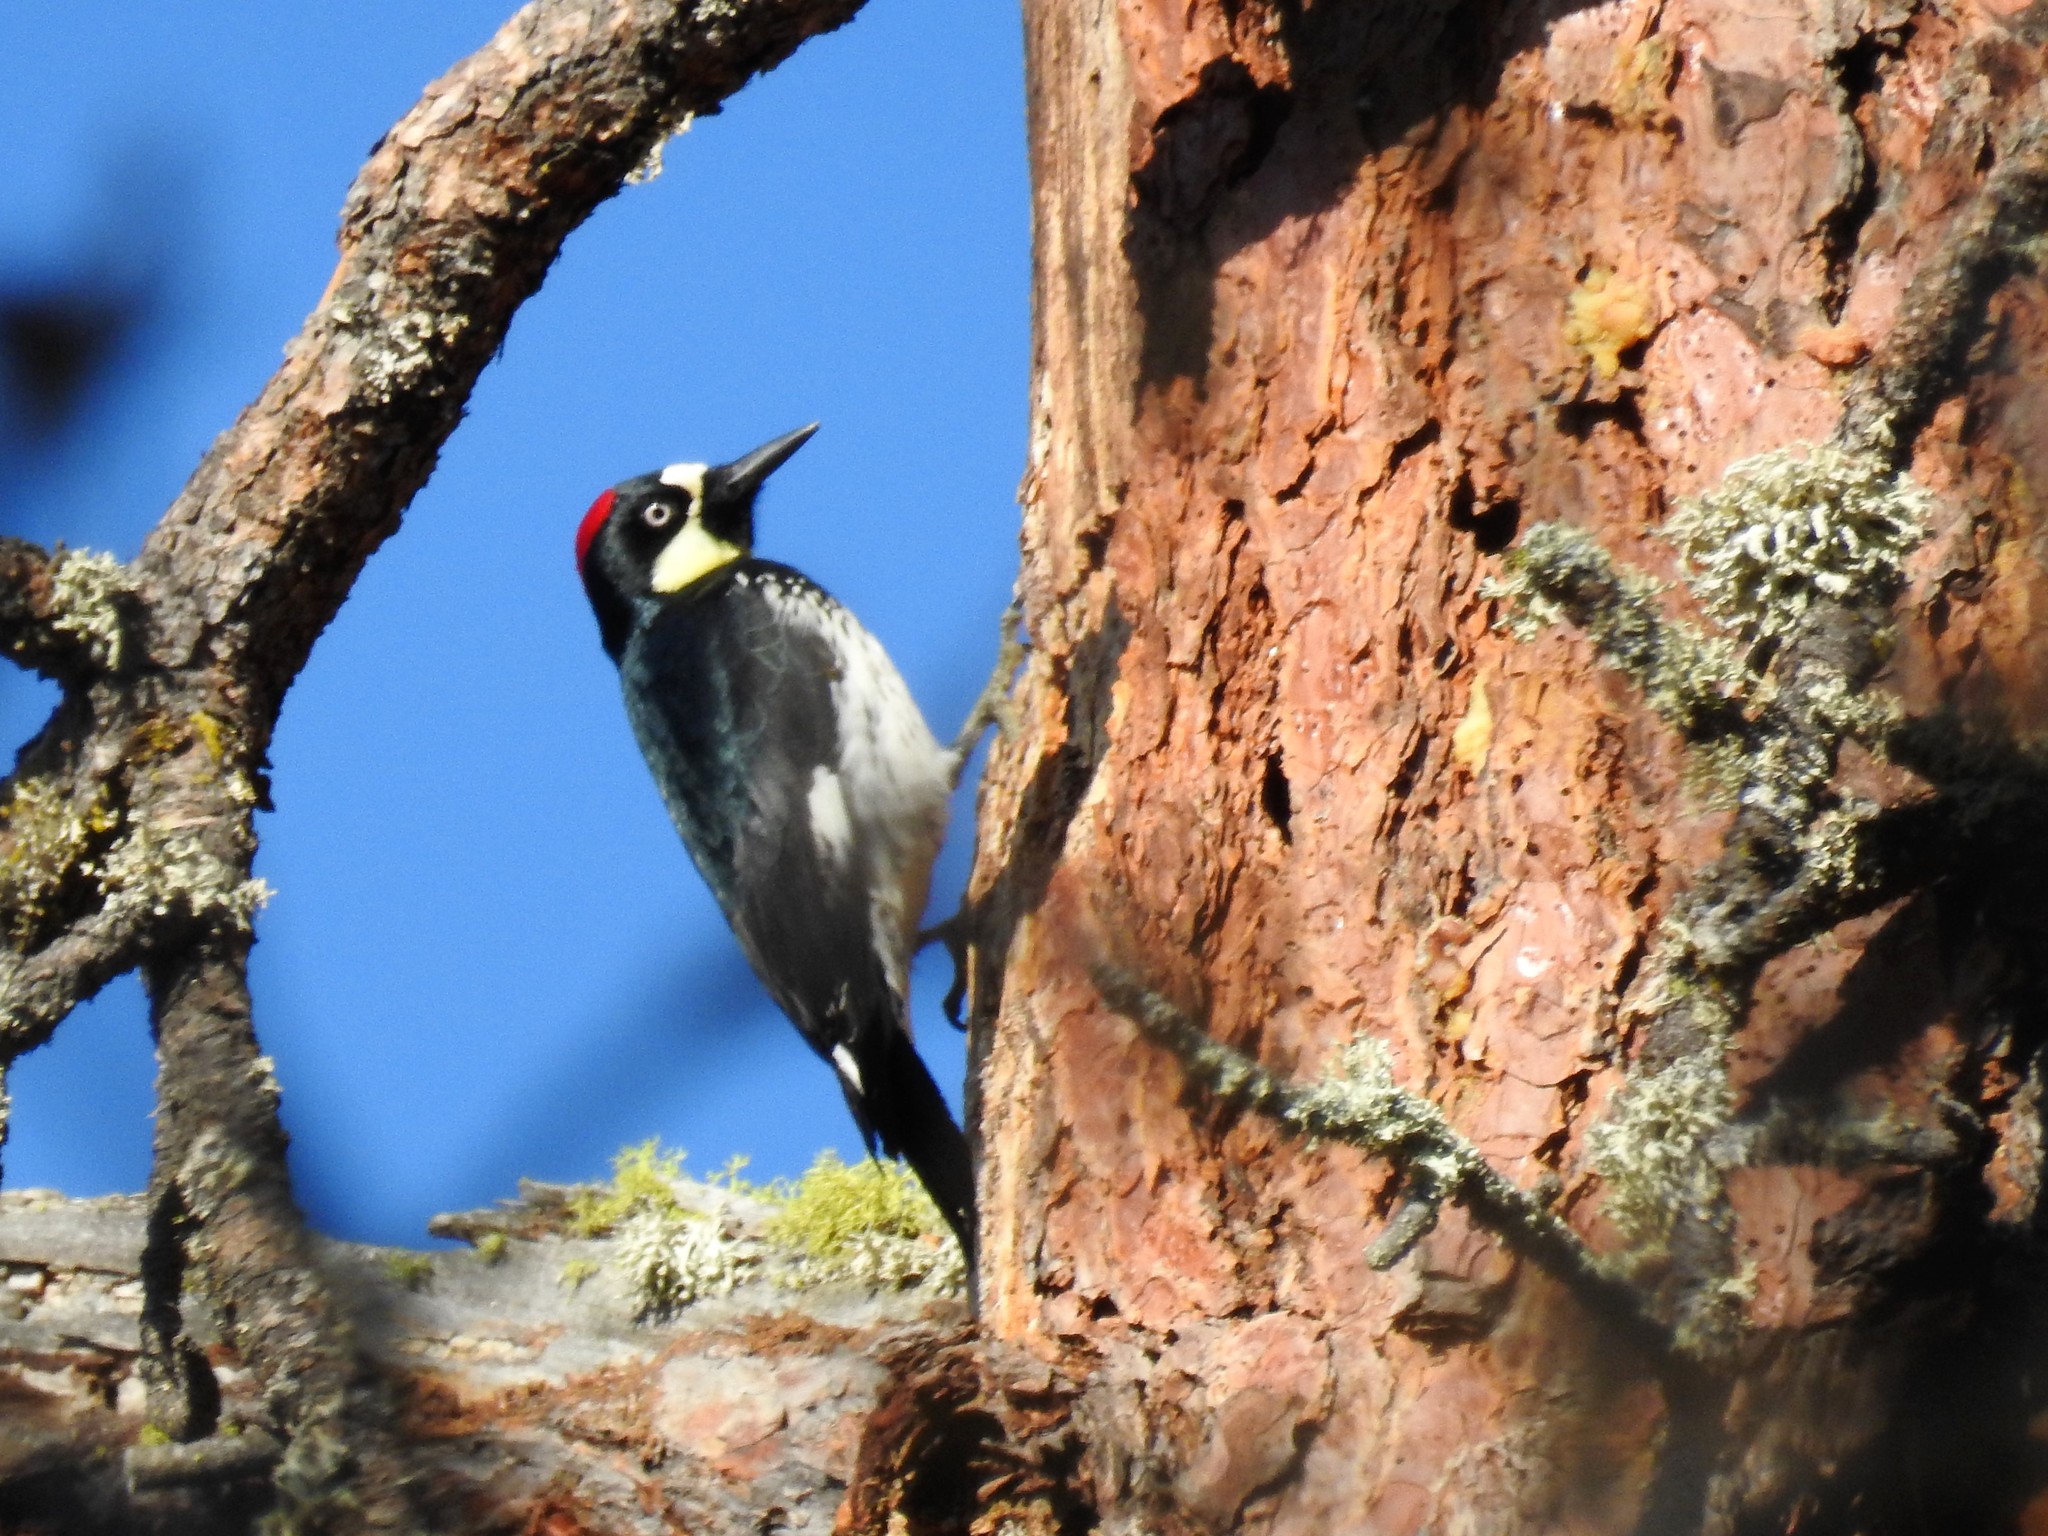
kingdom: Animalia
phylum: Chordata
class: Aves
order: Piciformes
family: Picidae
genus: Melanerpes
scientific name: Melanerpes formicivorus
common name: Acorn woodpecker
